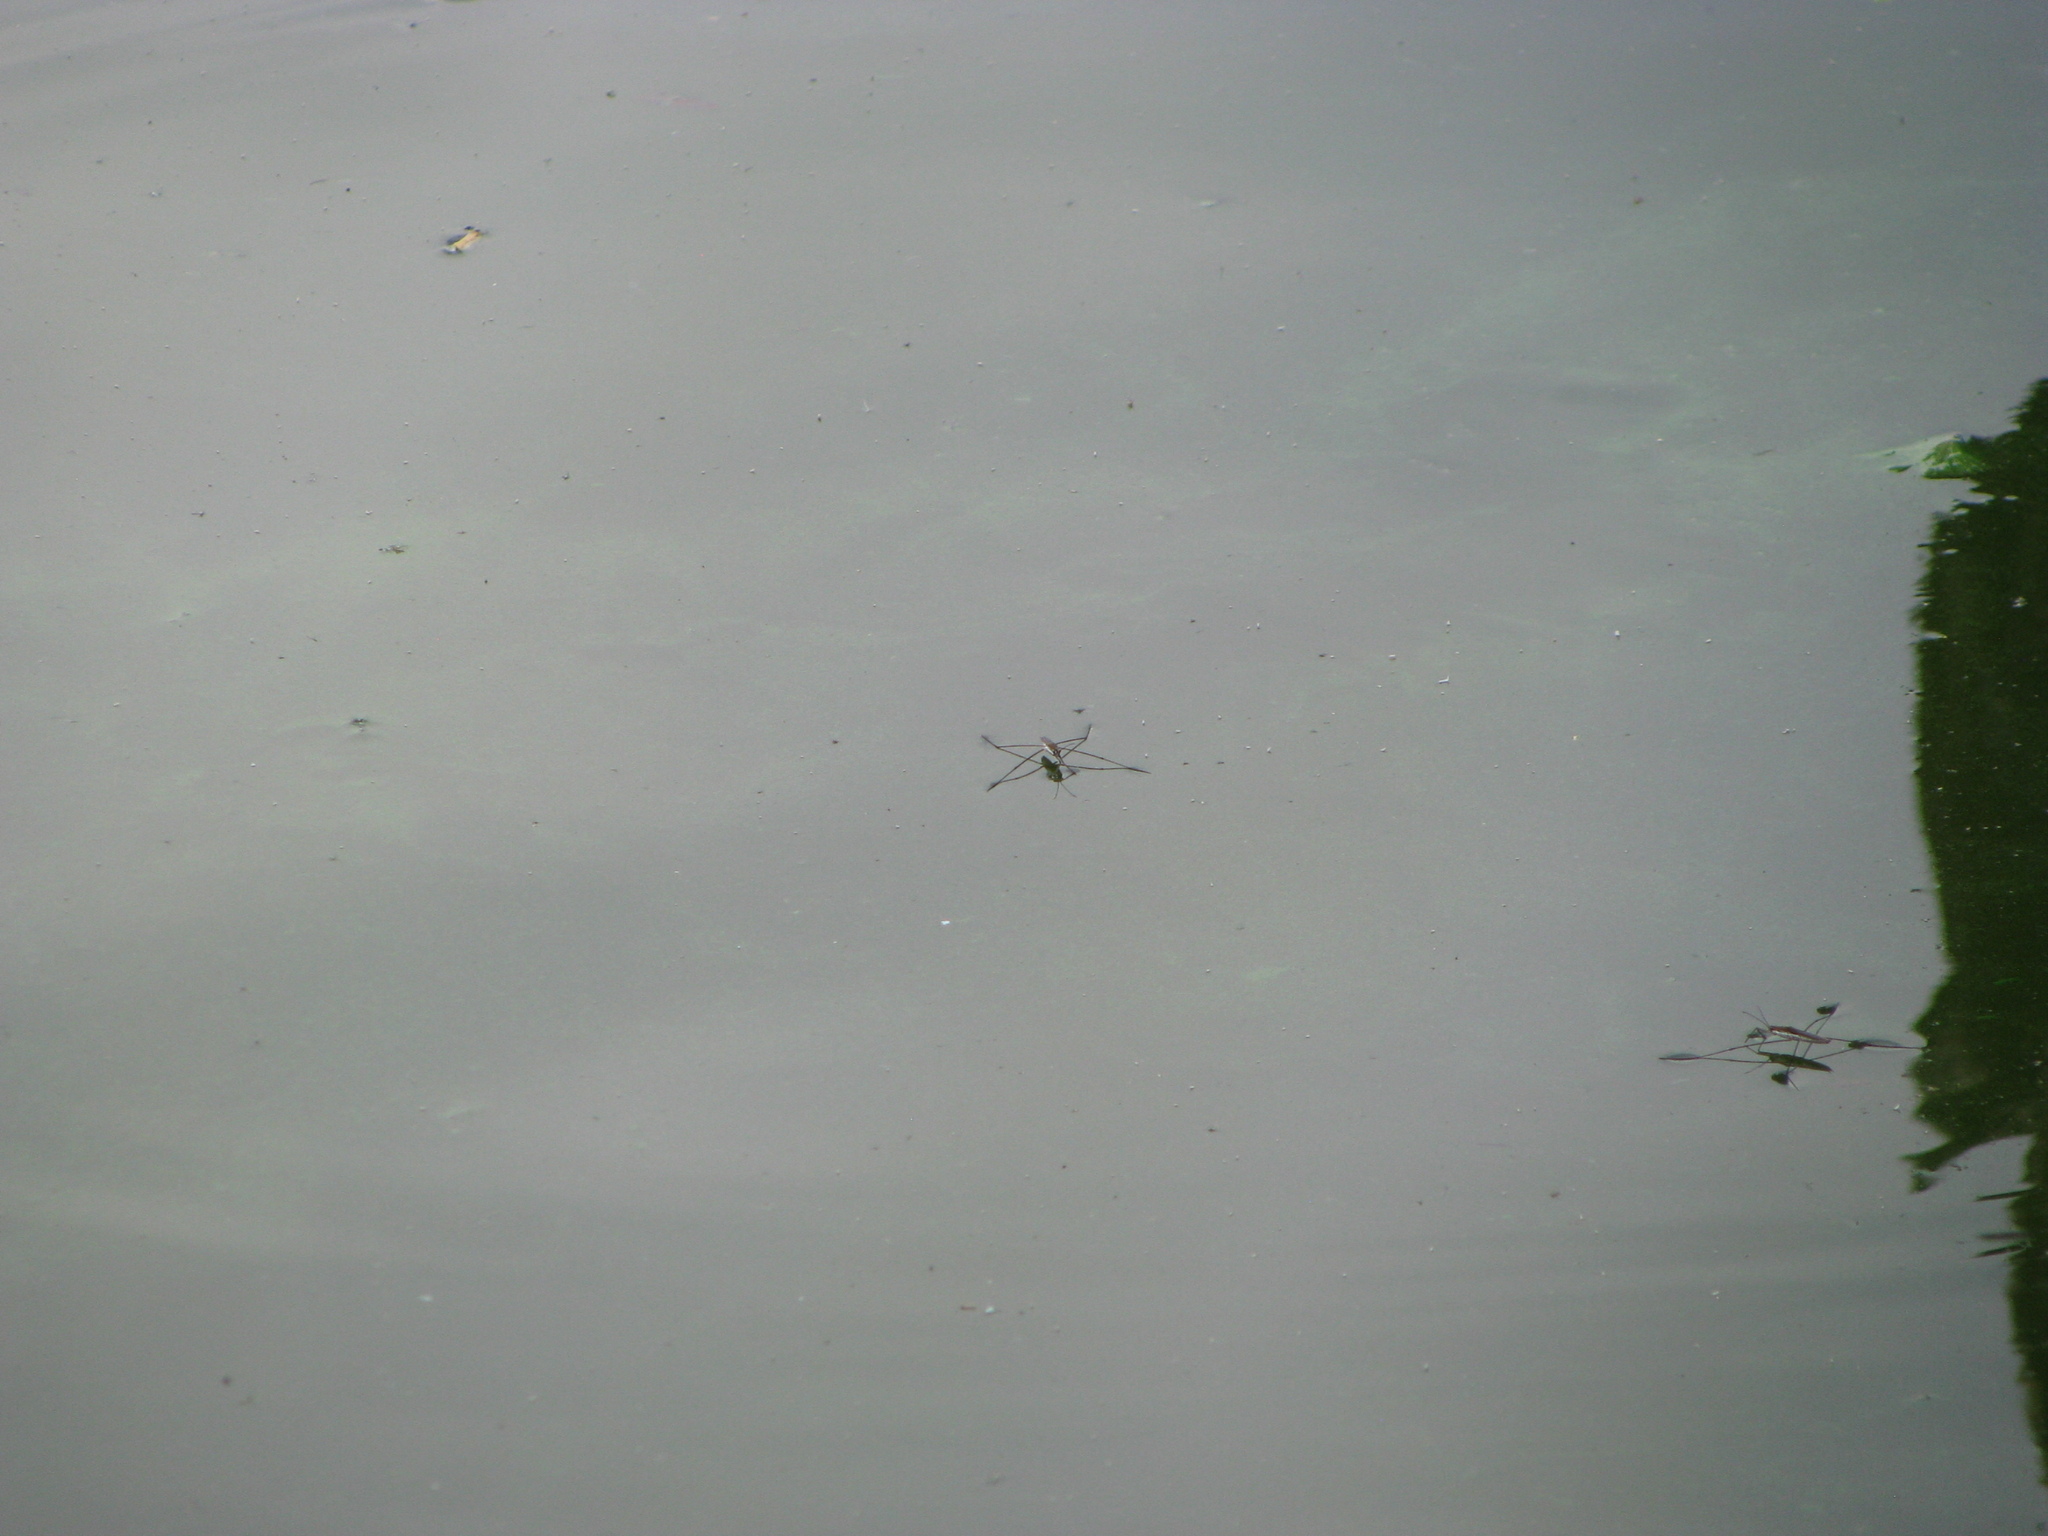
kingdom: Animalia
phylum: Arthropoda
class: Insecta
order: Hemiptera
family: Gerridae
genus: Aquarius
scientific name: Aquarius paludum
